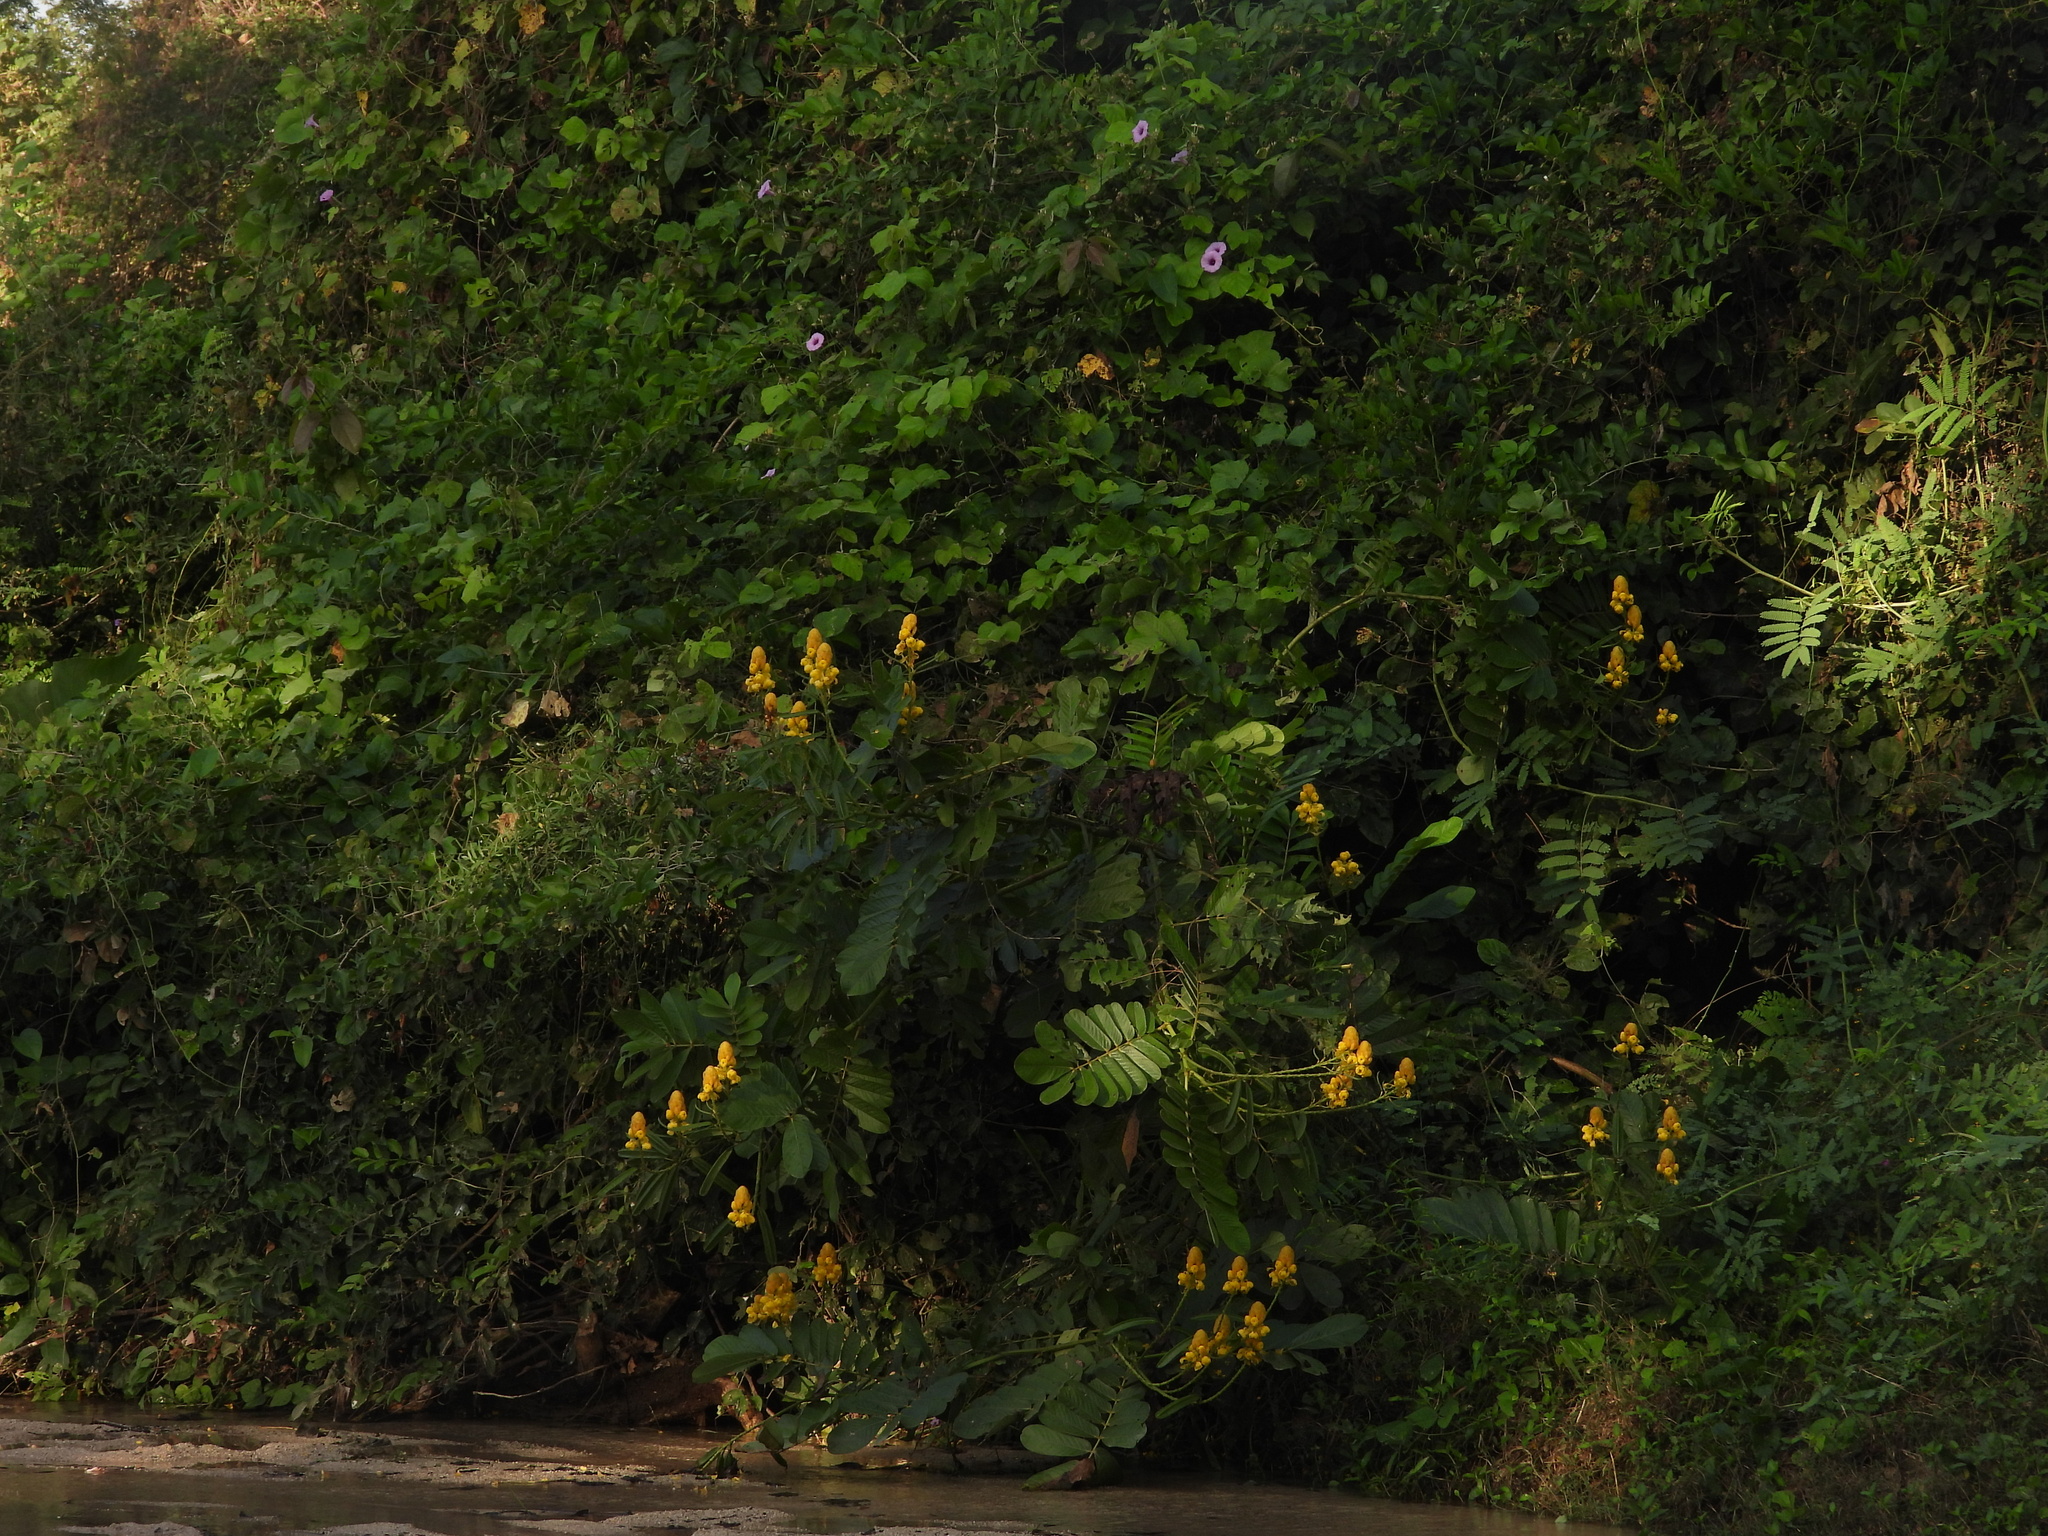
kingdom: Plantae
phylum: Tracheophyta
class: Magnoliopsida
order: Fabales
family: Fabaceae
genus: Senna
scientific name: Senna alata
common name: Emperor's candlesticks
